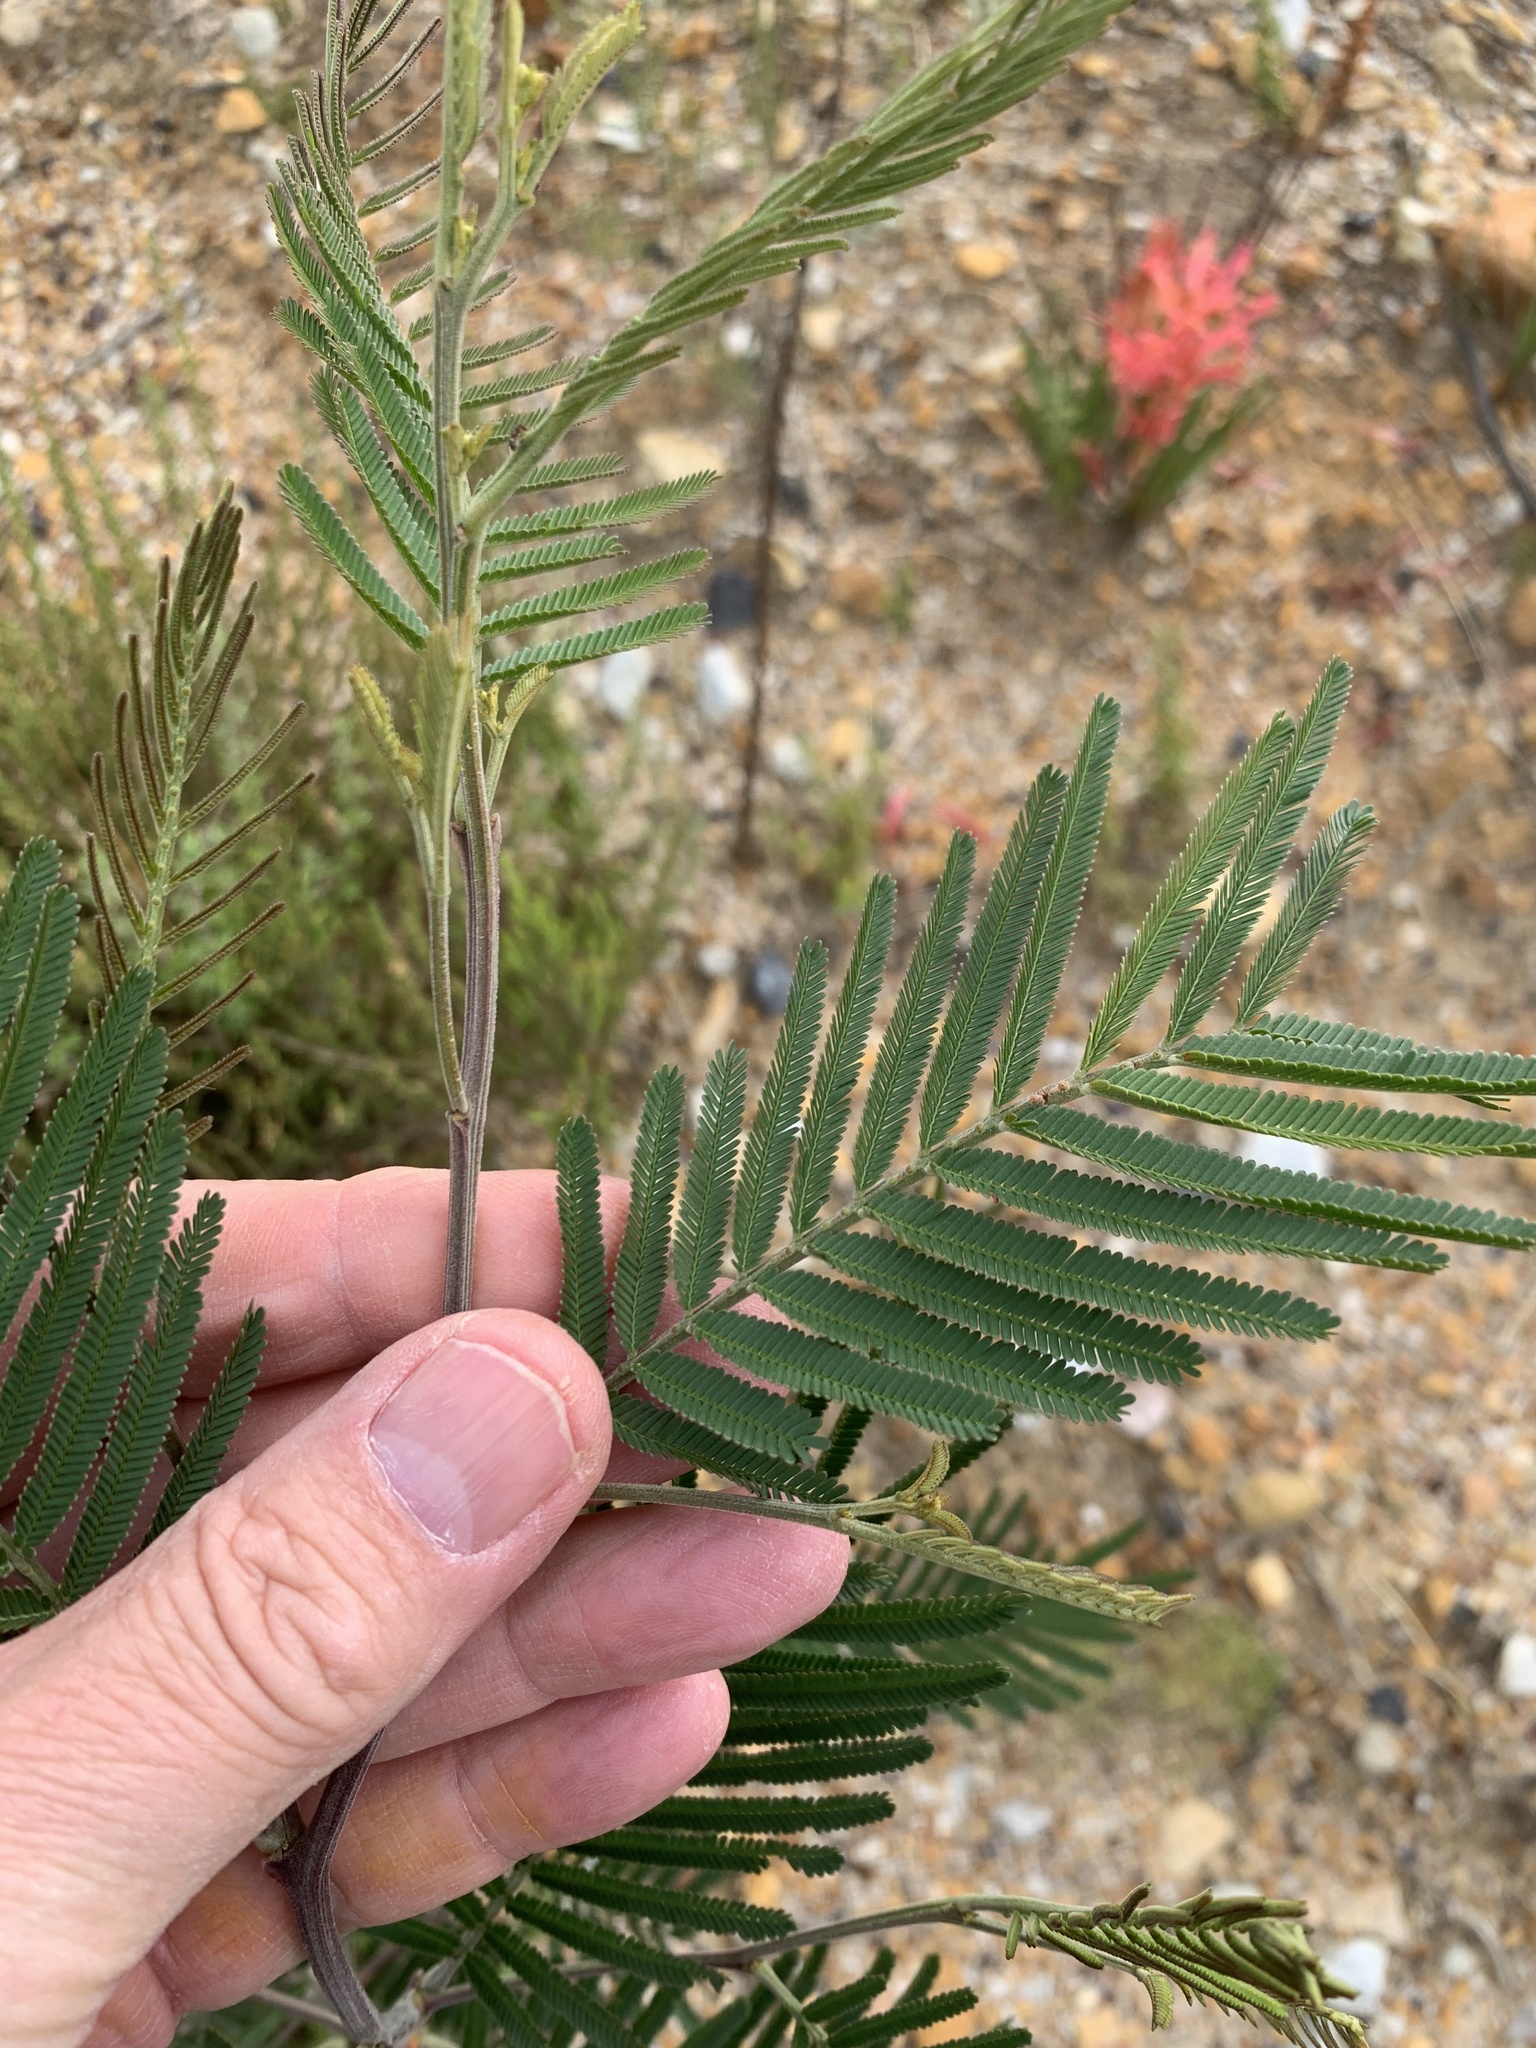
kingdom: Plantae
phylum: Tracheophyta
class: Magnoliopsida
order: Fabales
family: Fabaceae
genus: Acacia
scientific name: Acacia mearnsii
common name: Black wattle
